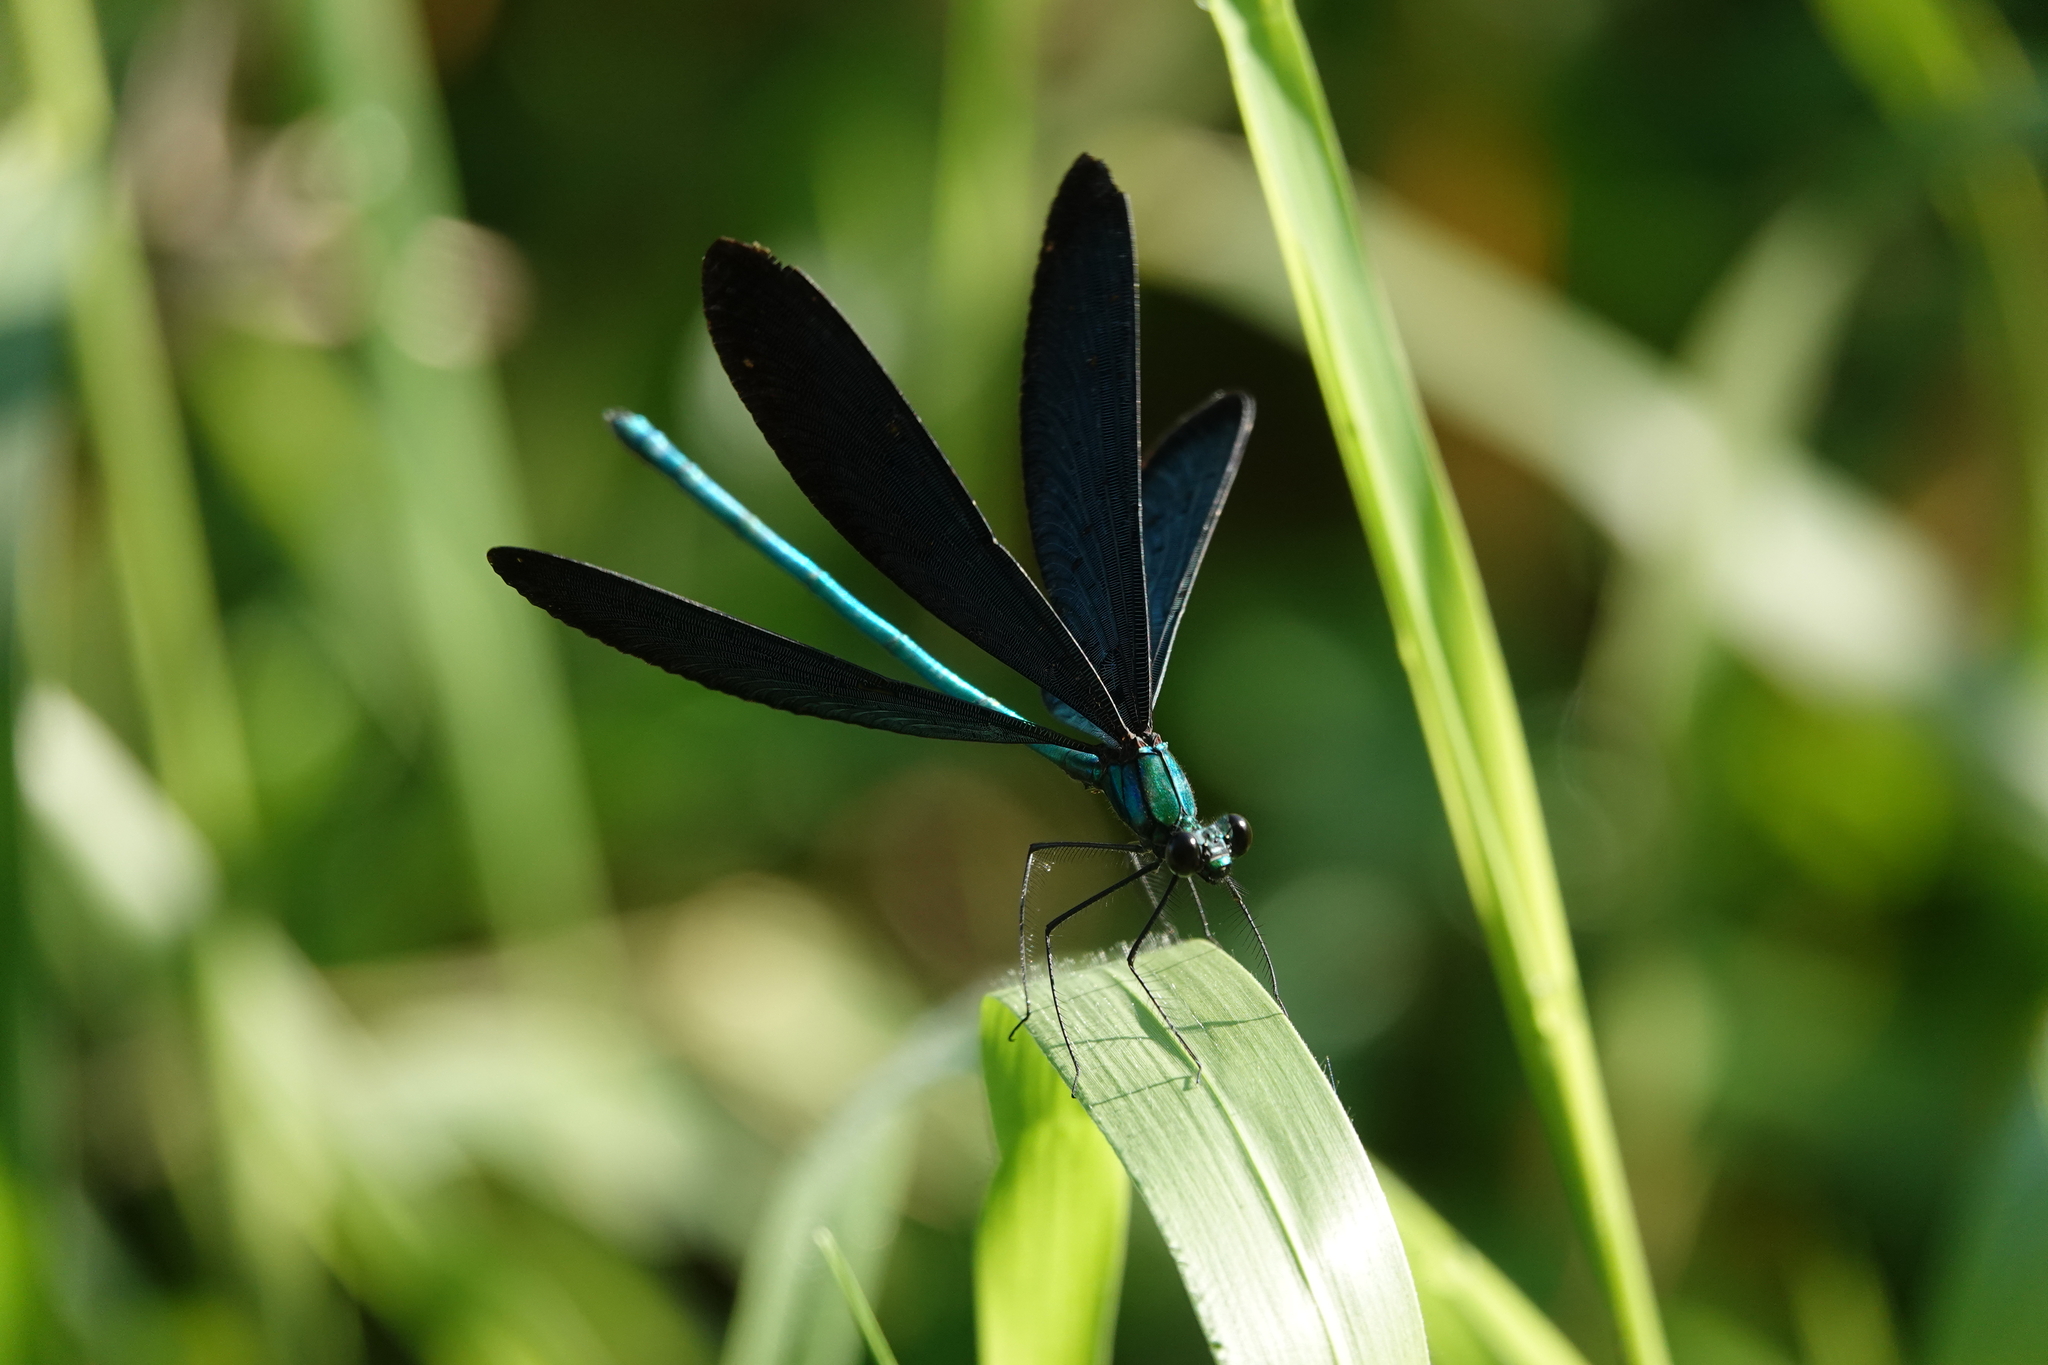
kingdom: Animalia
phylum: Arthropoda
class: Insecta
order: Odonata
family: Calopterygidae
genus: Matrona
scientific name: Matrona cyanoptera
